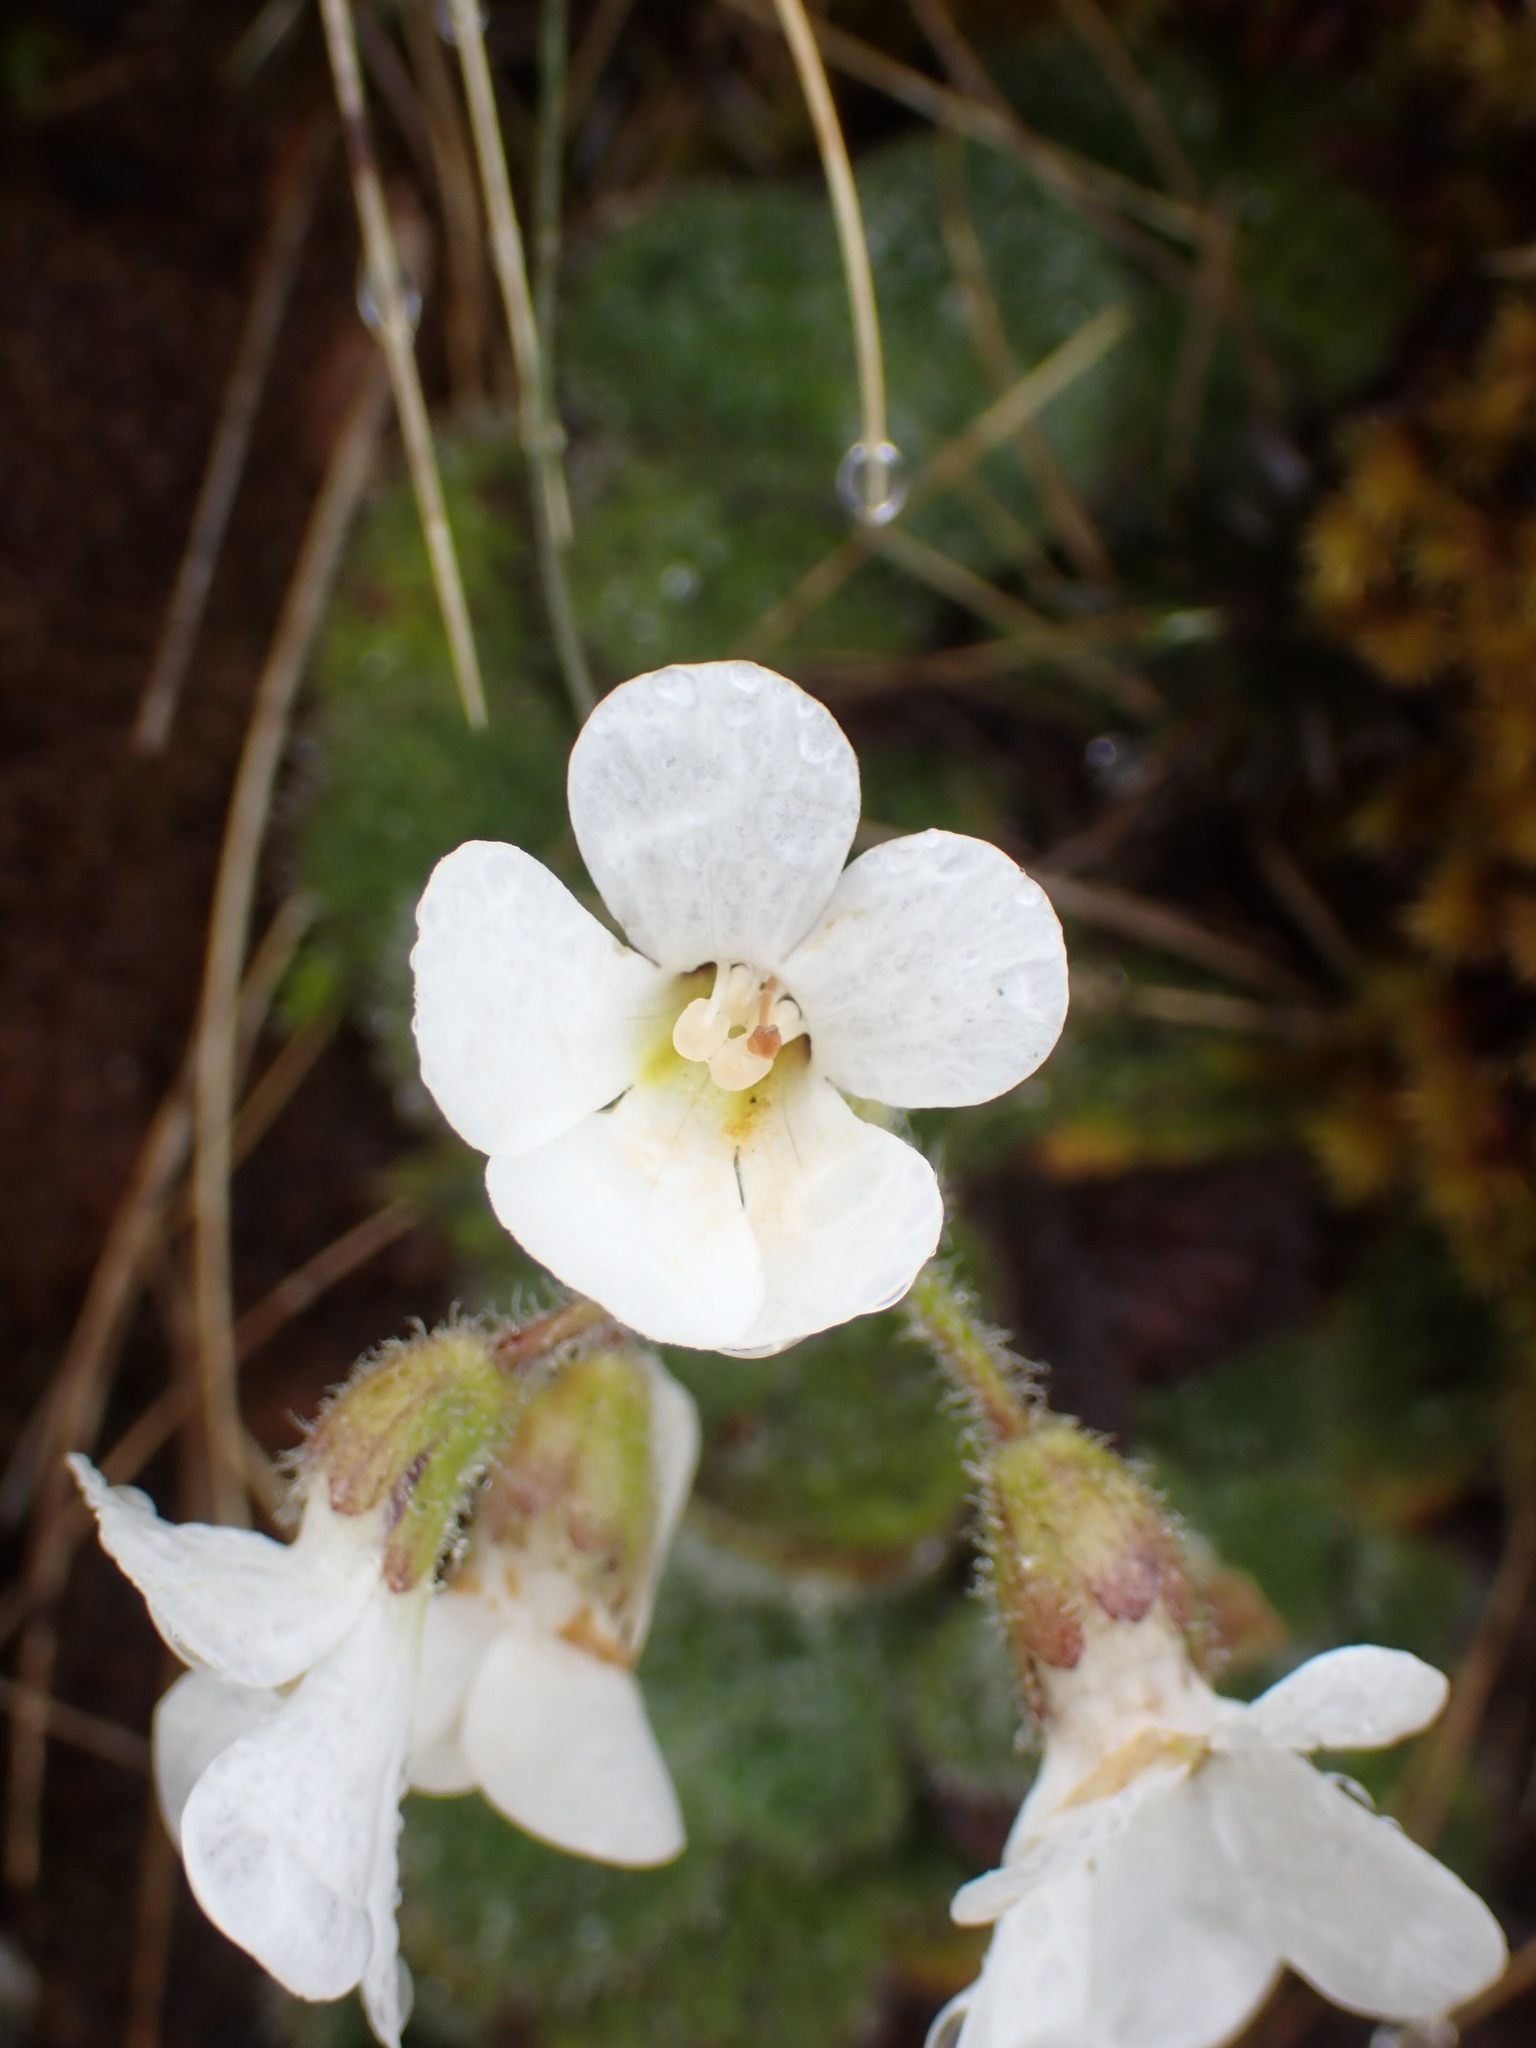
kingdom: Plantae
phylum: Tracheophyta
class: Magnoliopsida
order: Lamiales
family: Plantaginaceae
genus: Ourisia
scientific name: Ourisia confertifolia
